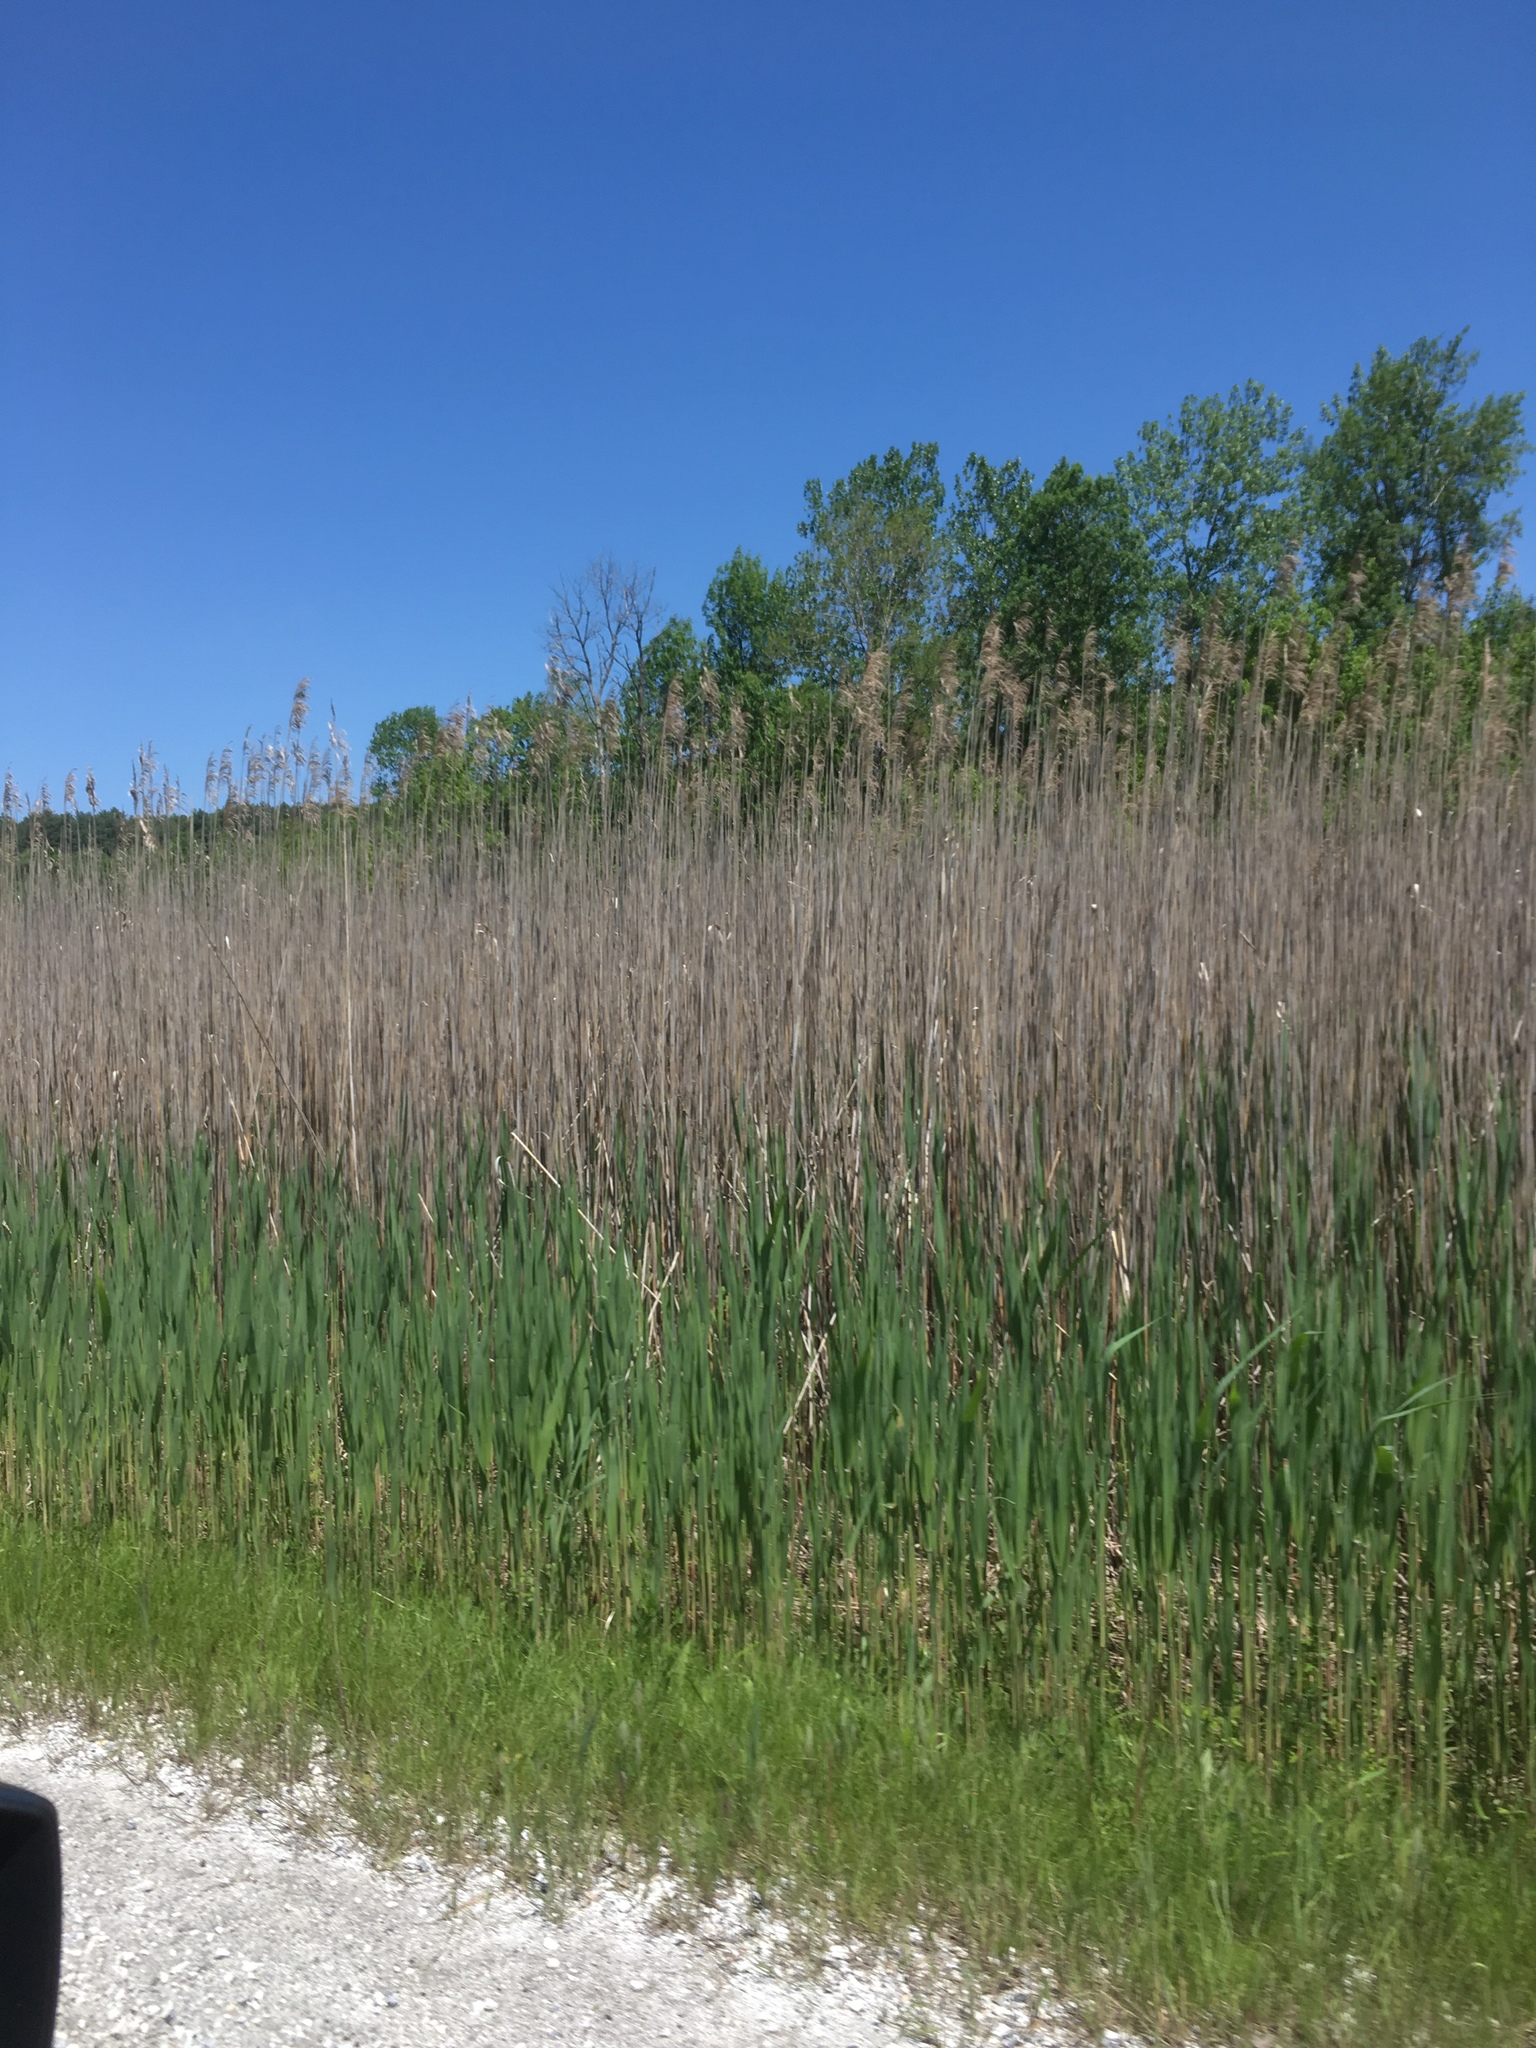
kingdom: Plantae
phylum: Tracheophyta
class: Liliopsida
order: Poales
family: Poaceae
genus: Phragmites
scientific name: Phragmites australis
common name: Common reed
